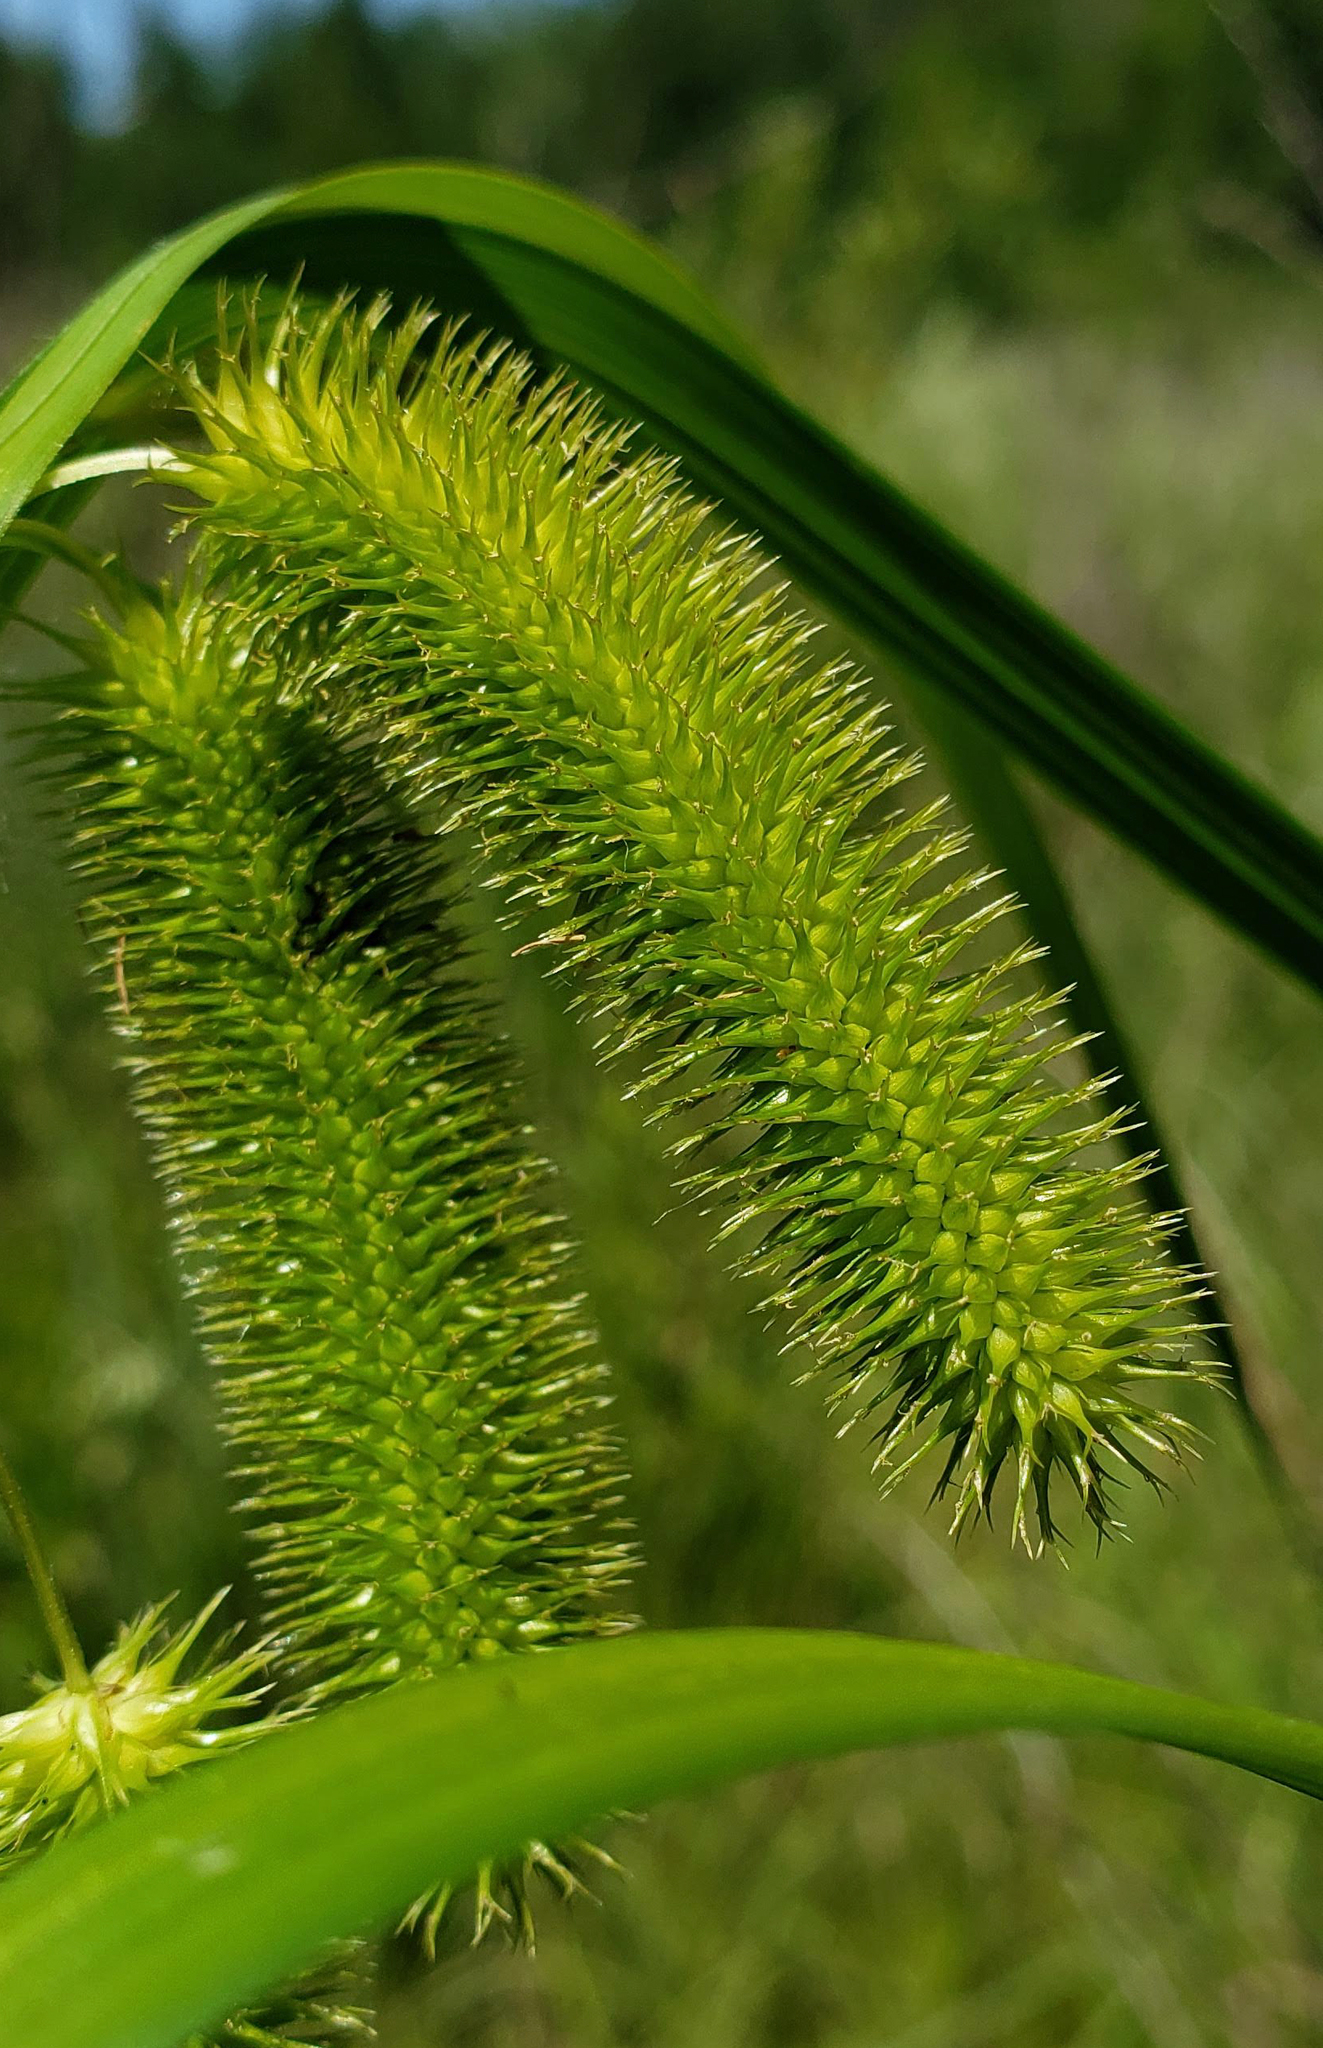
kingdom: Plantae
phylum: Tracheophyta
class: Liliopsida
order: Poales
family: Cyperaceae
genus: Carex
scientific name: Carex comosa
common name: Bristly sedge
